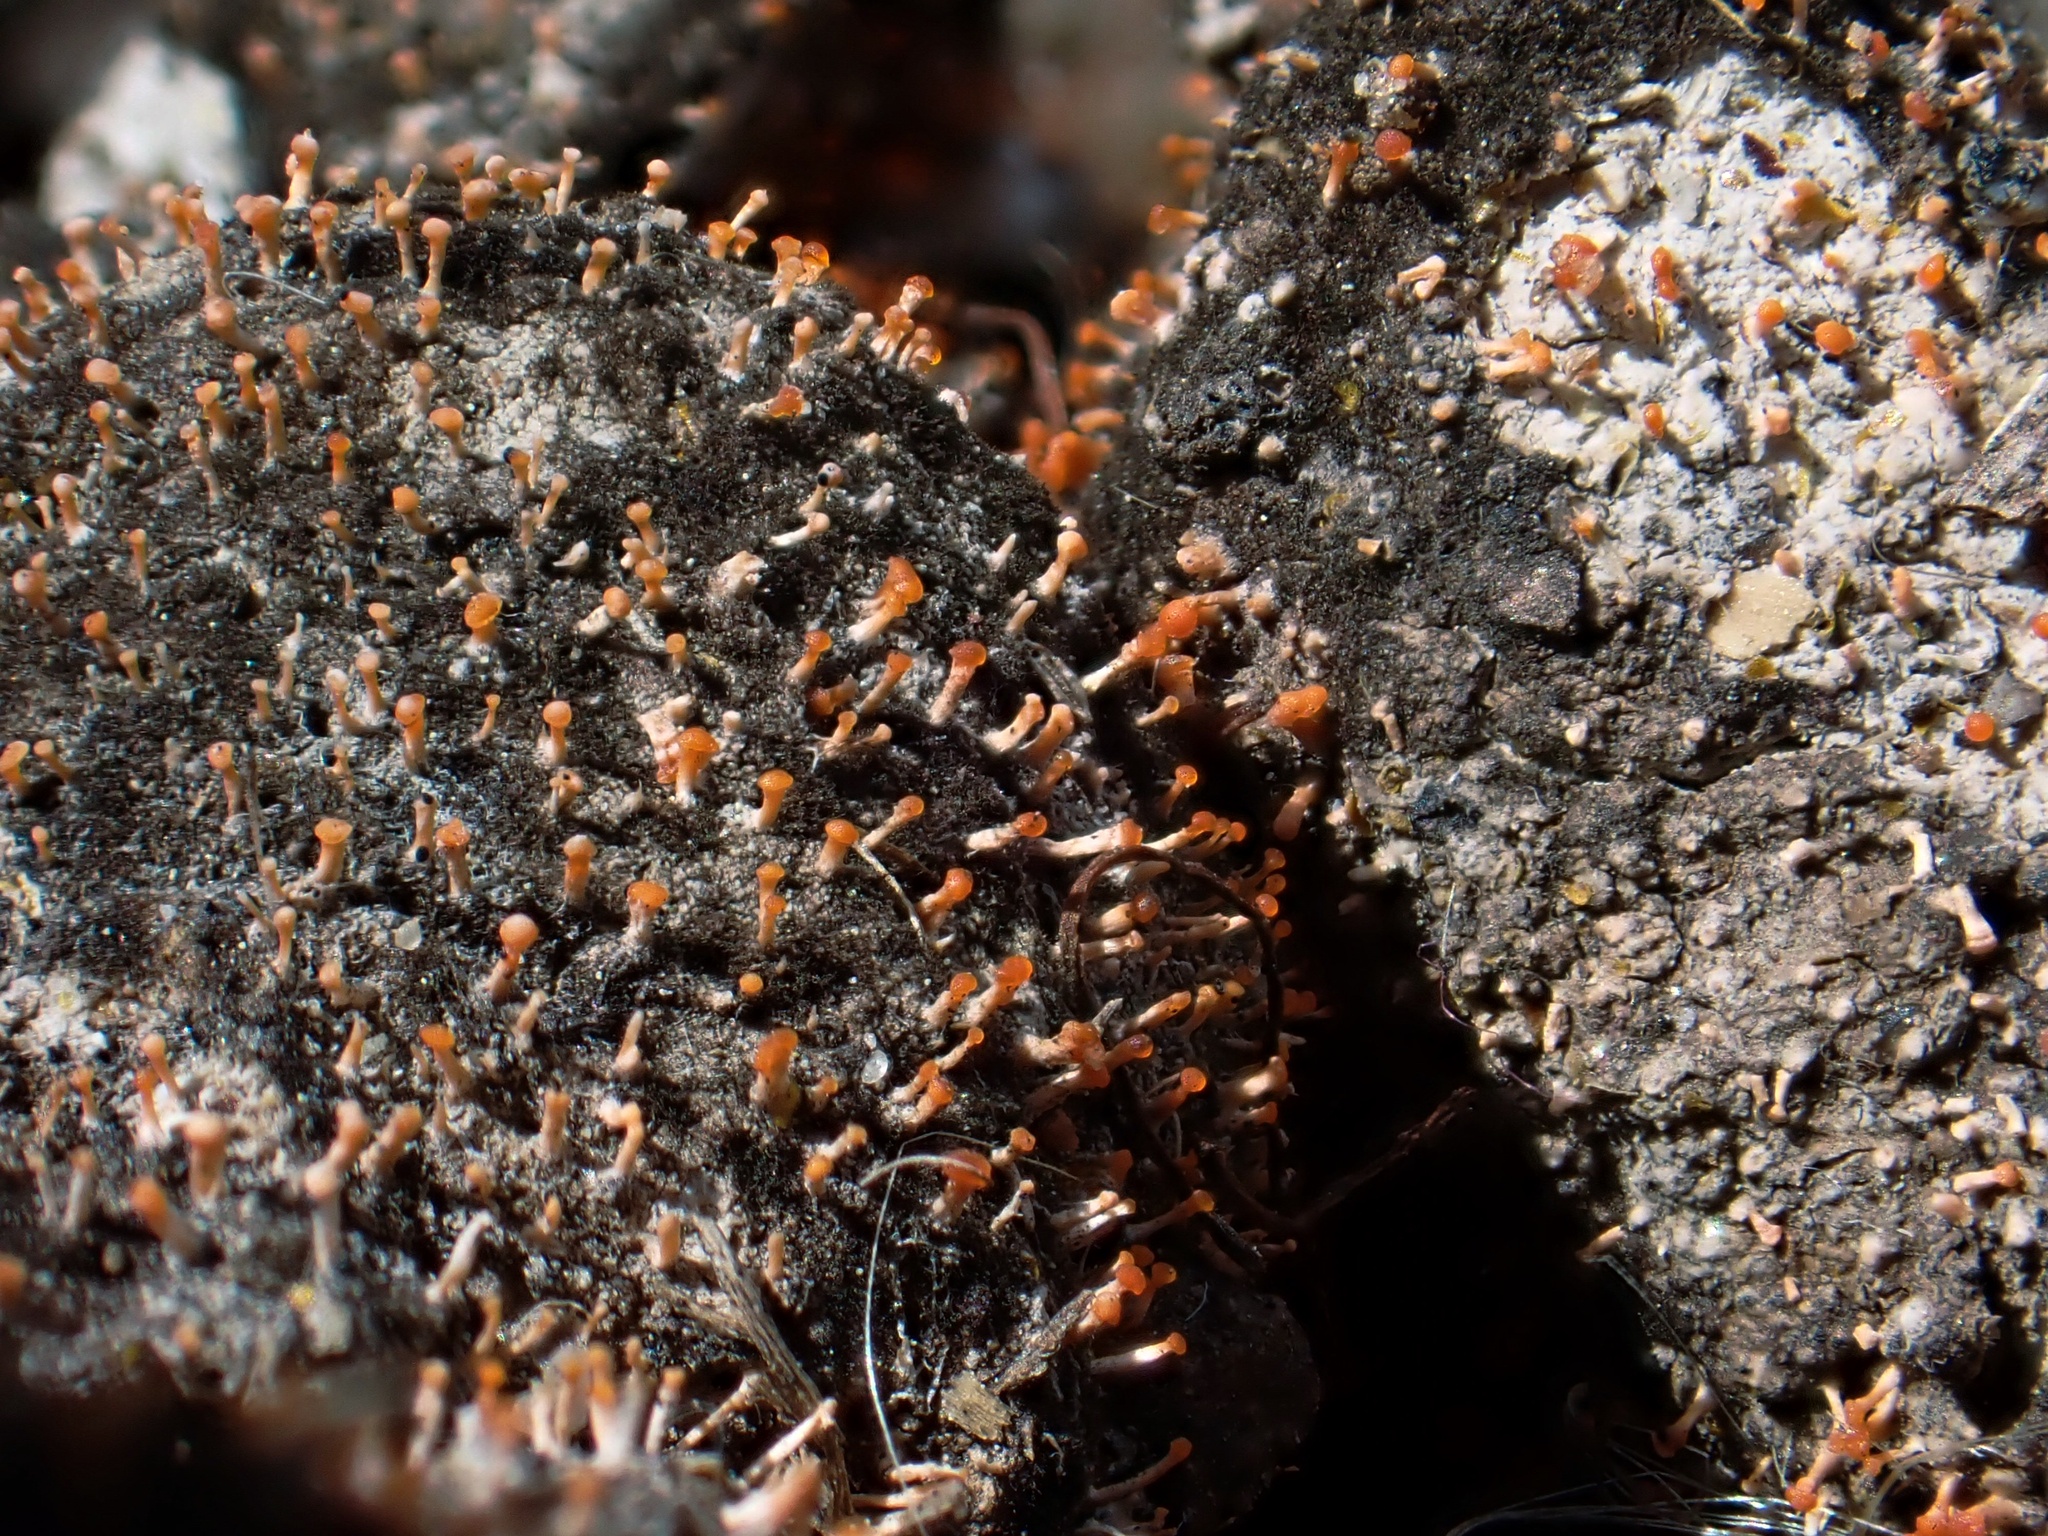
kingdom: Fungi
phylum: Ascomycota
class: Sordariomycetes
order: Hypocreales
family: Myrotheciomycetaceae
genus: Emericellopsis
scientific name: Emericellopsis
